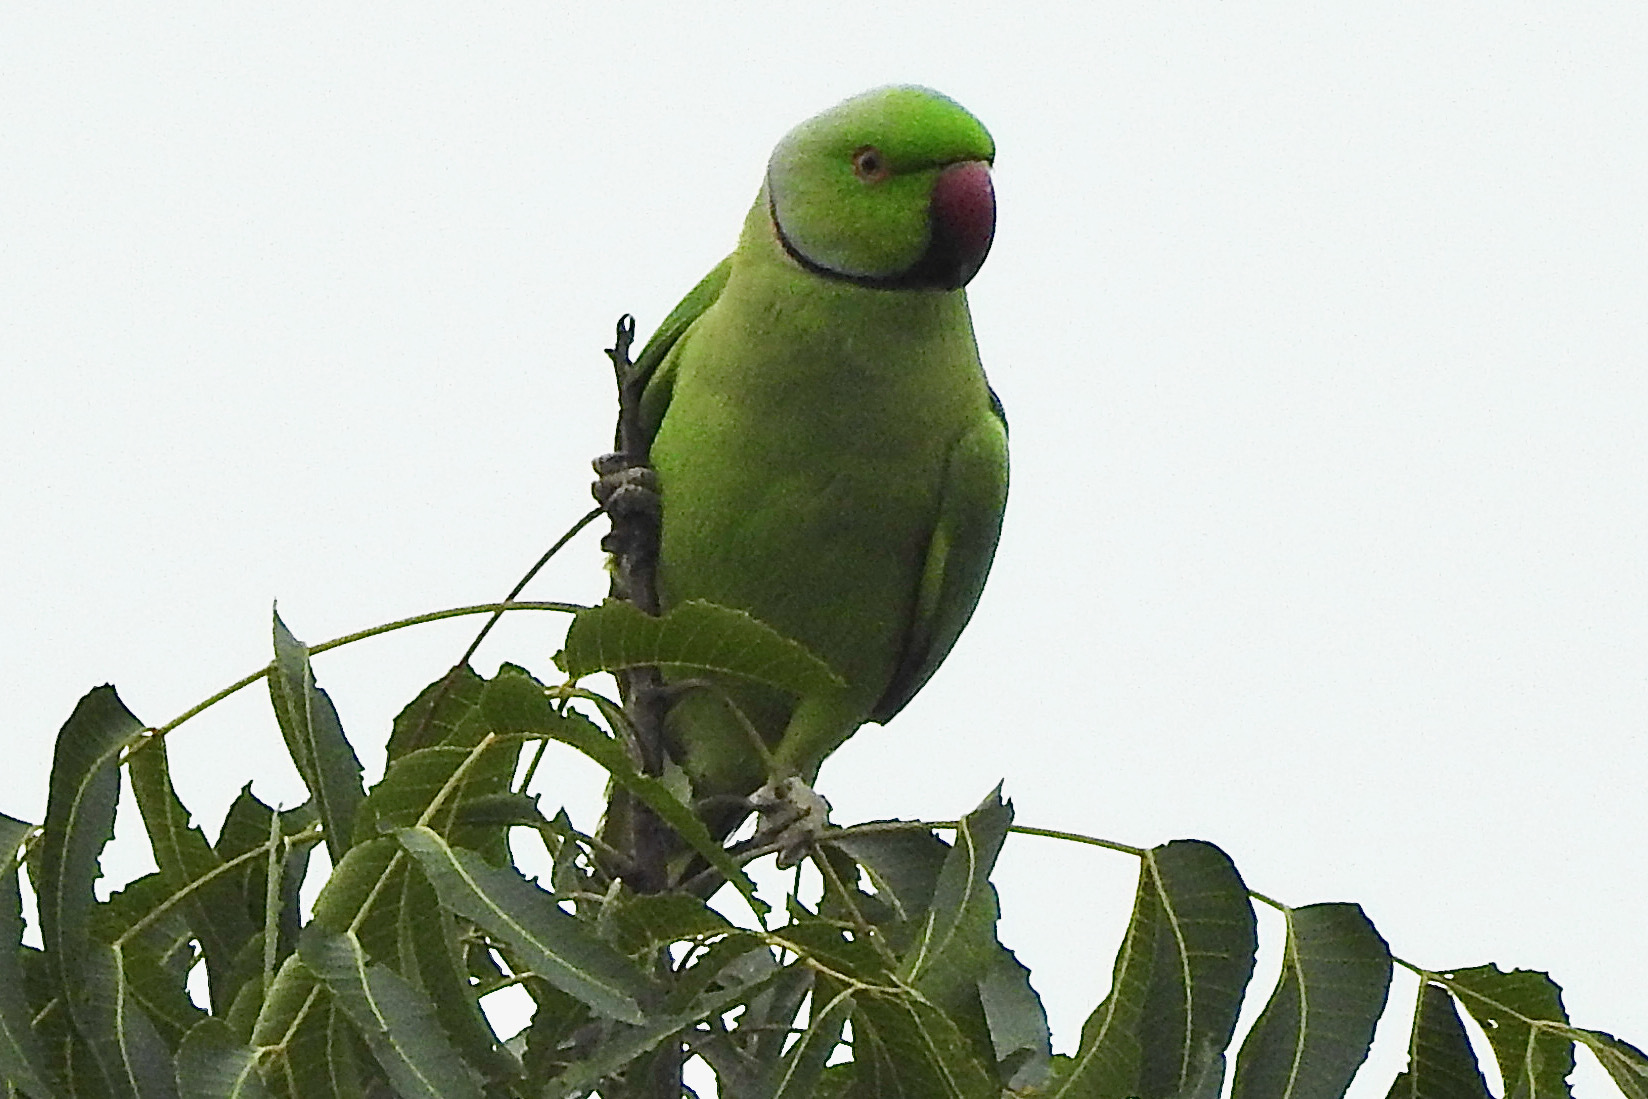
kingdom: Animalia
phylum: Chordata
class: Aves
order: Psittaciformes
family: Psittacidae
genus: Psittacula
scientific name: Psittacula krameri
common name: Rose-ringed parakeet
